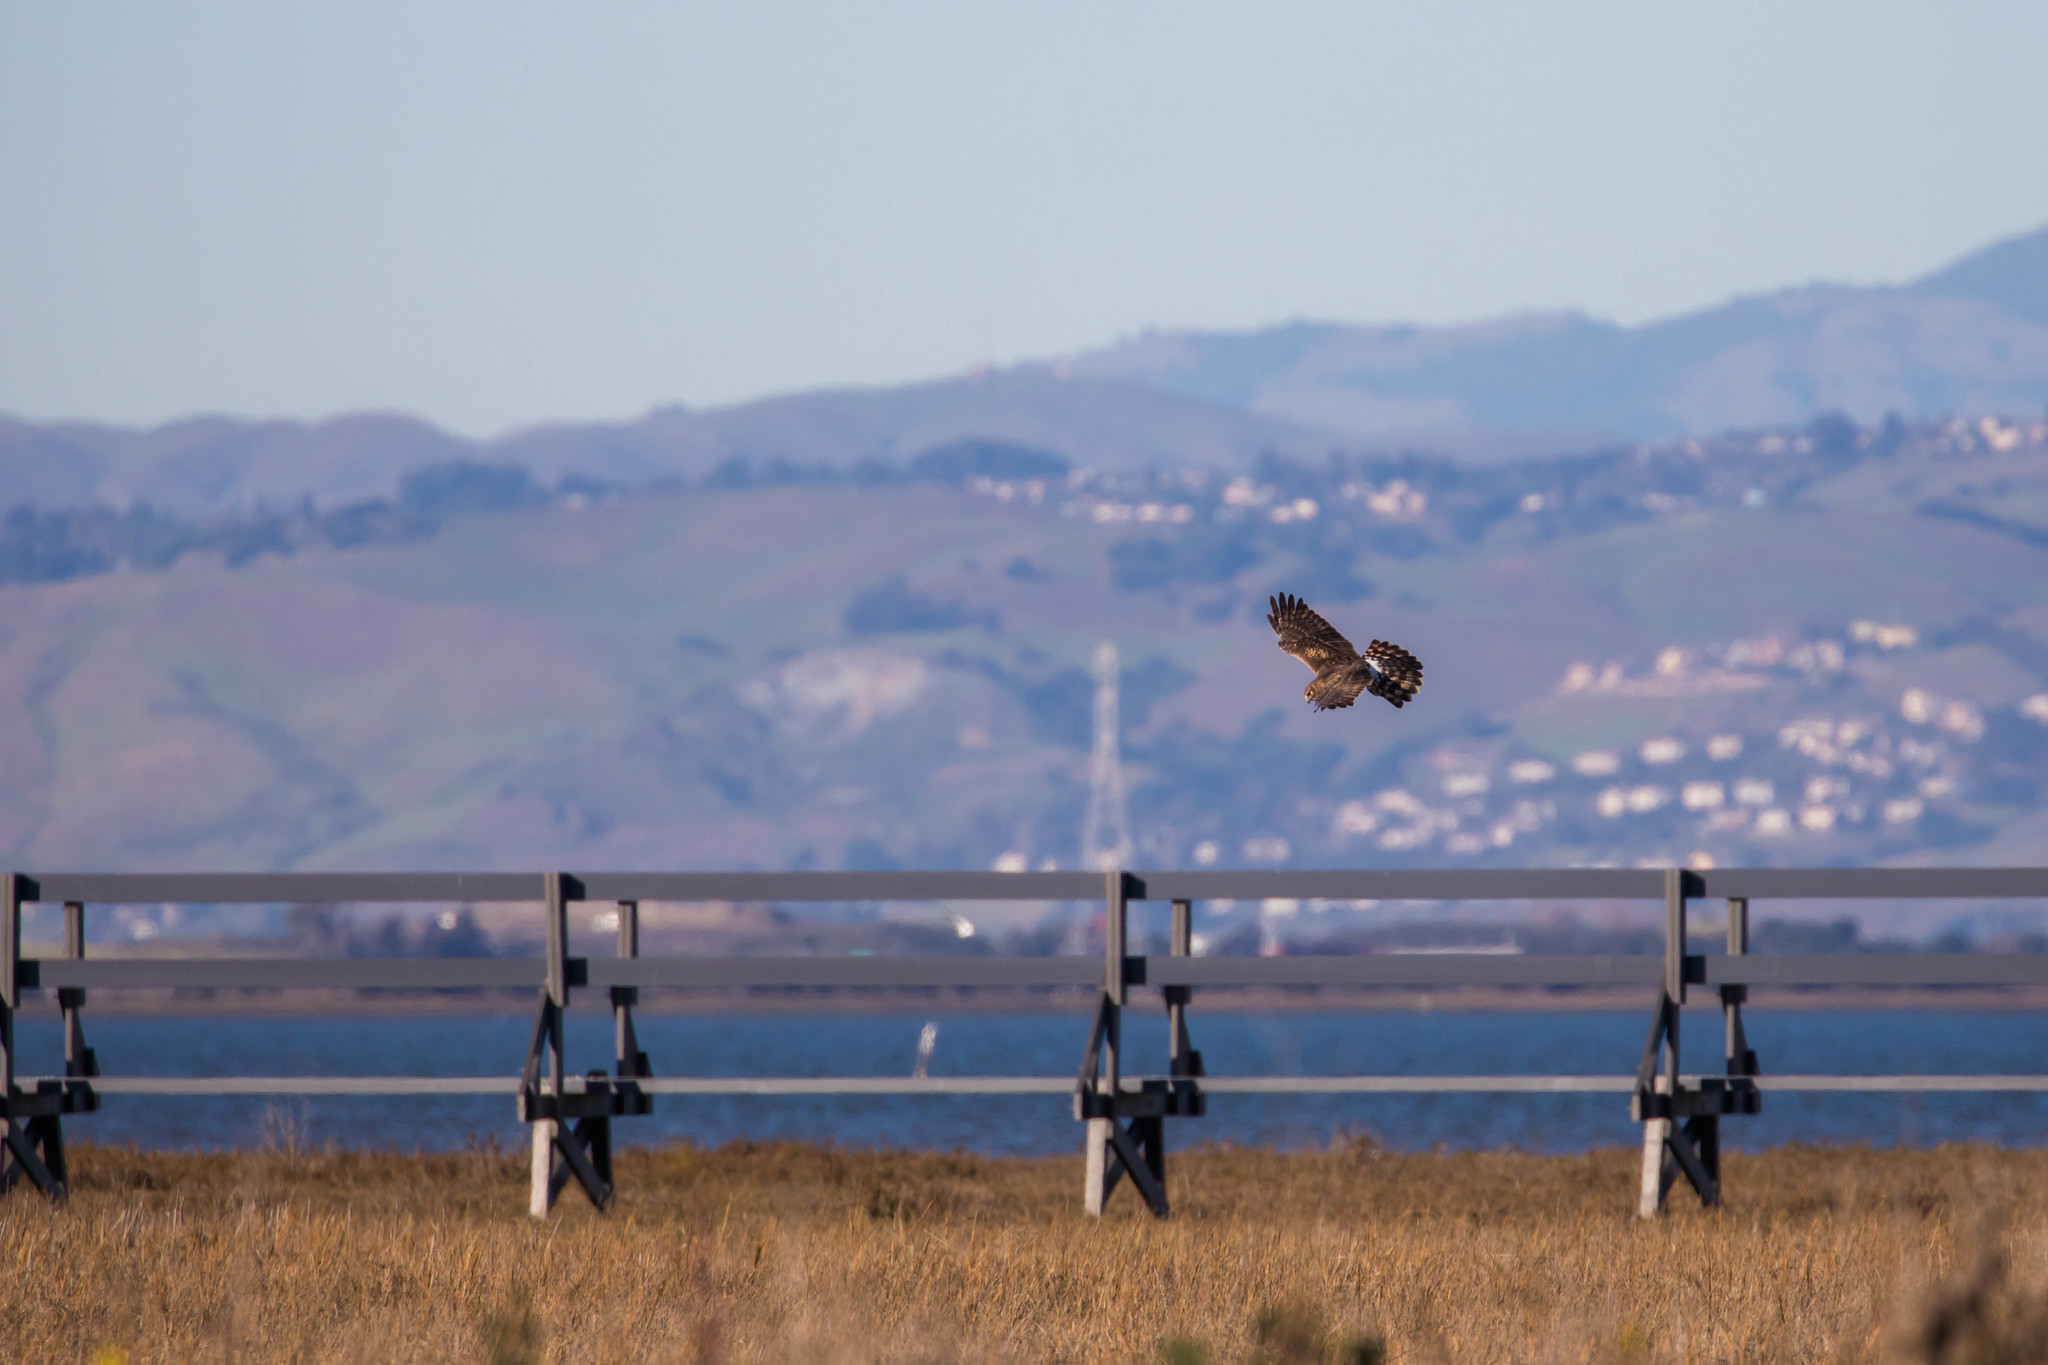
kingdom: Animalia
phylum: Chordata
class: Aves
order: Accipitriformes
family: Accipitridae
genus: Circus
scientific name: Circus cyaneus
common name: Hen harrier
